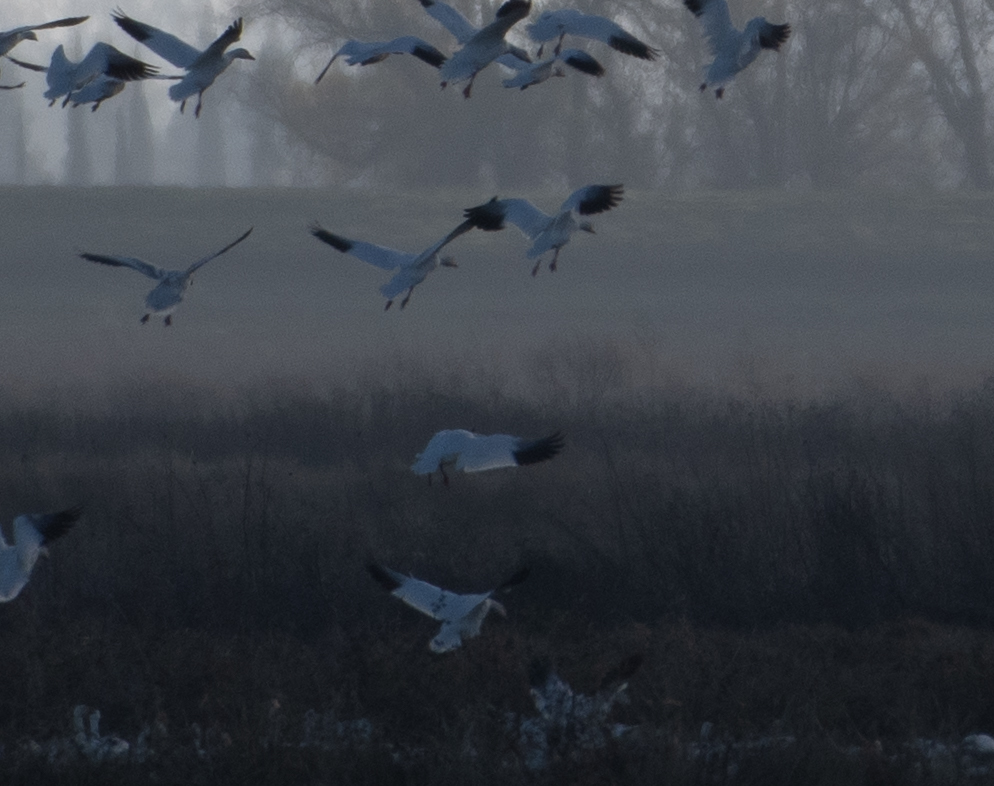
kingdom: Animalia
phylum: Chordata
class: Aves
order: Anseriformes
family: Anatidae
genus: Anser
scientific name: Anser caerulescens
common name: Snow goose
